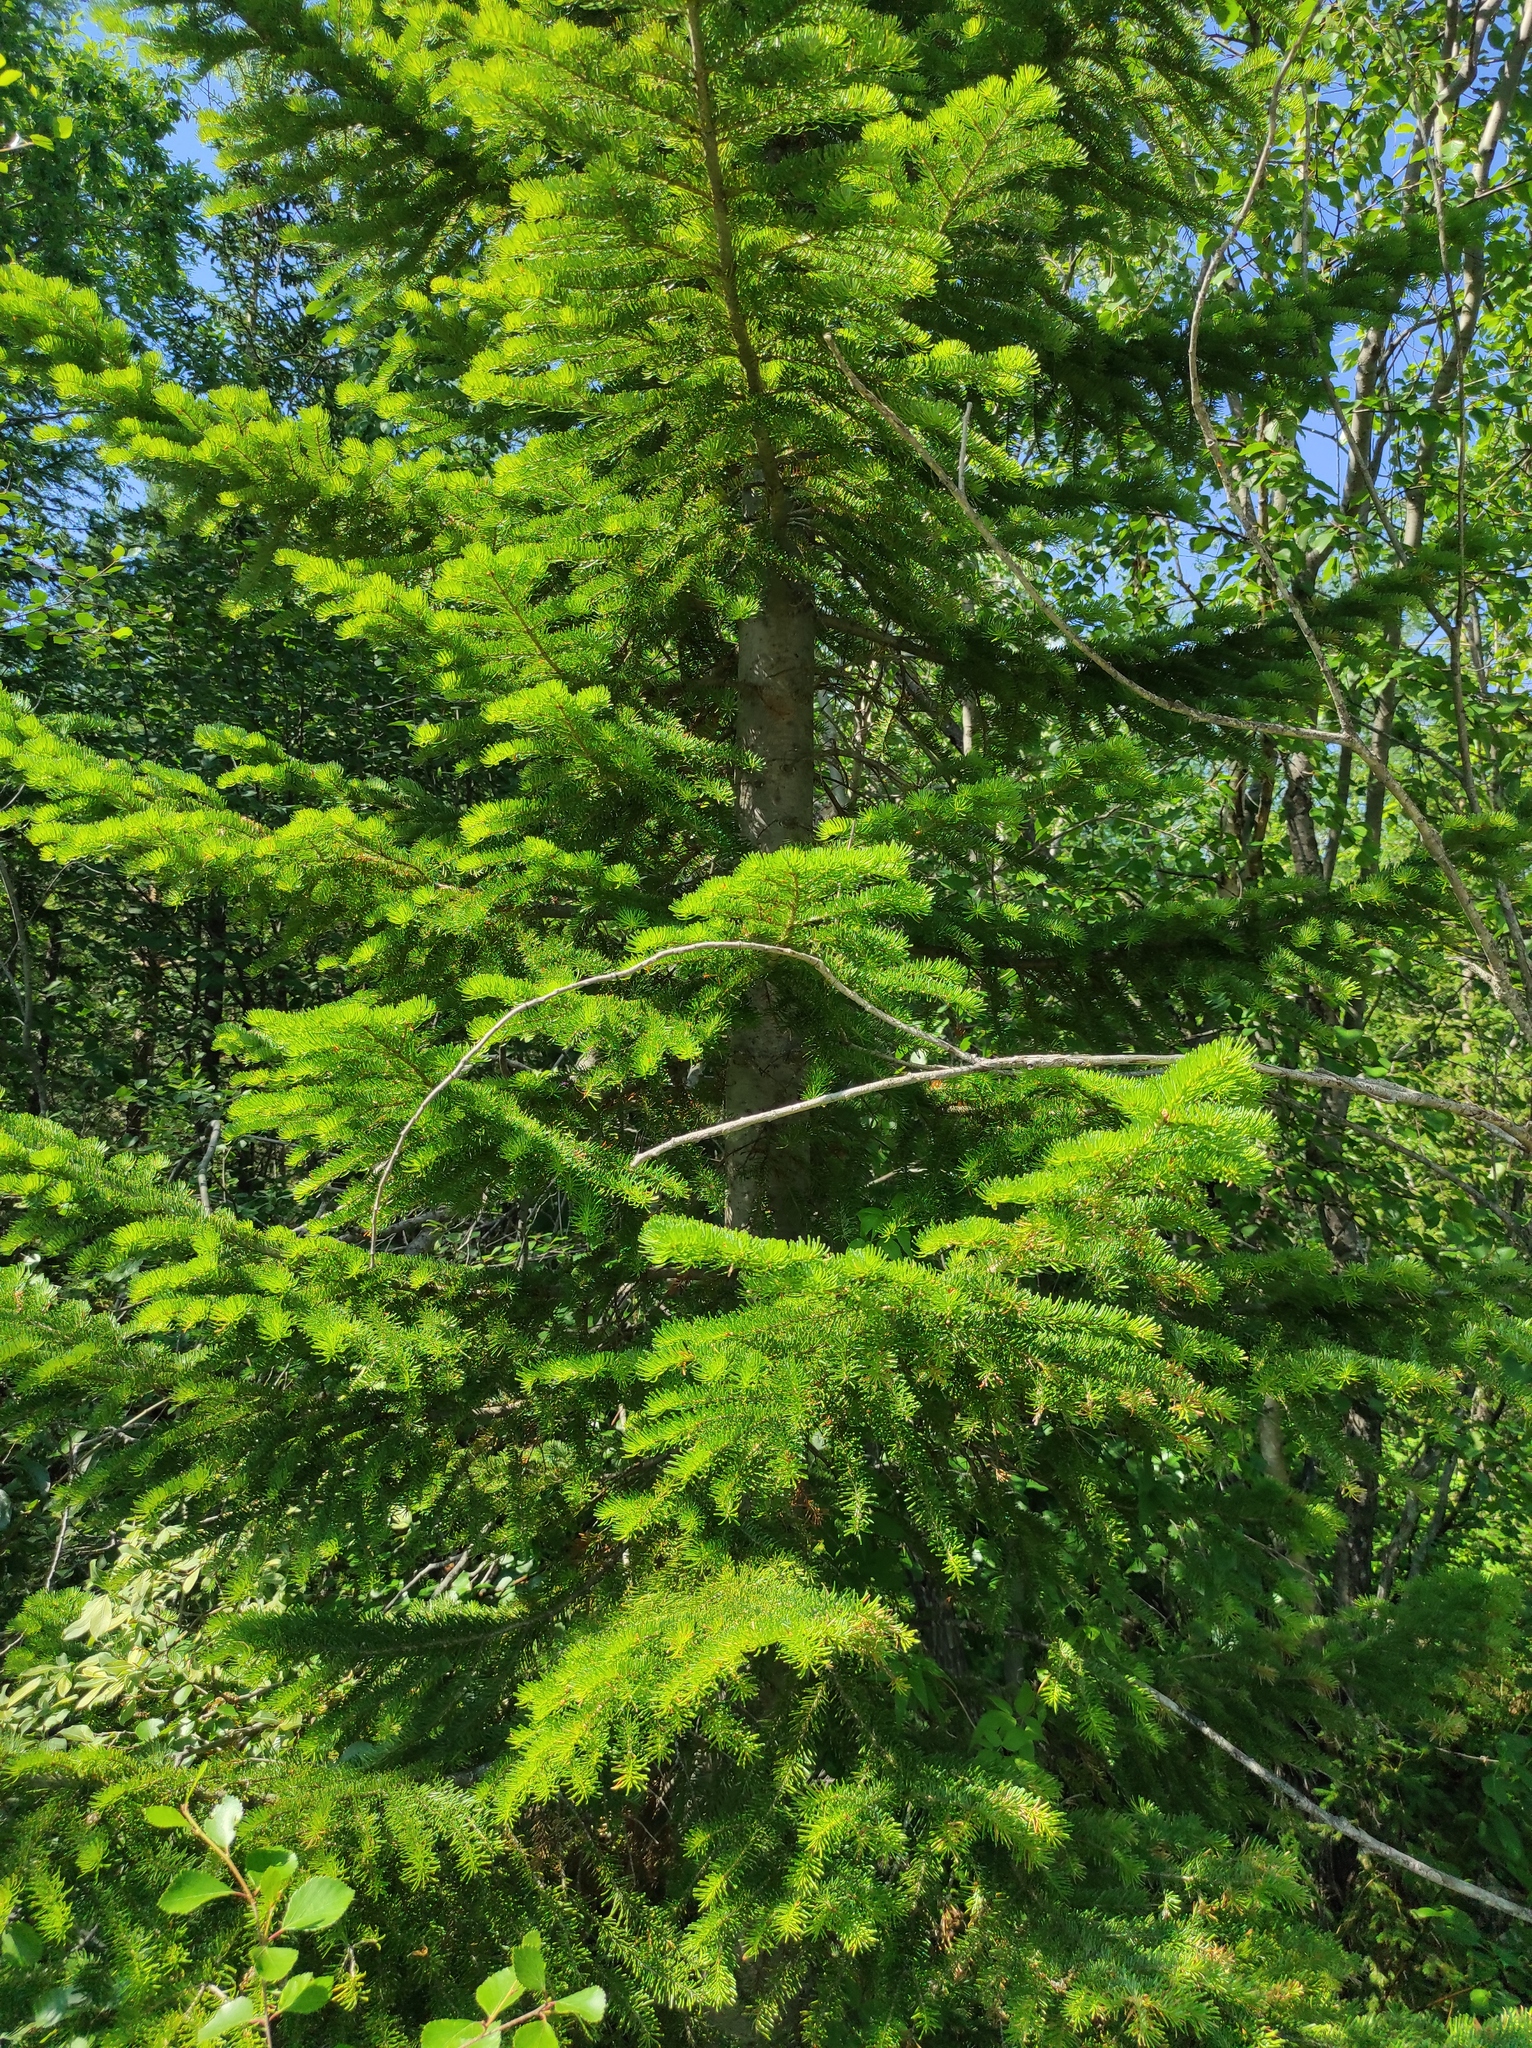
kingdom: Plantae
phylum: Tracheophyta
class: Pinopsida
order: Pinales
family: Pinaceae
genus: Abies
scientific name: Abies sibirica
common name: Siberian fir
